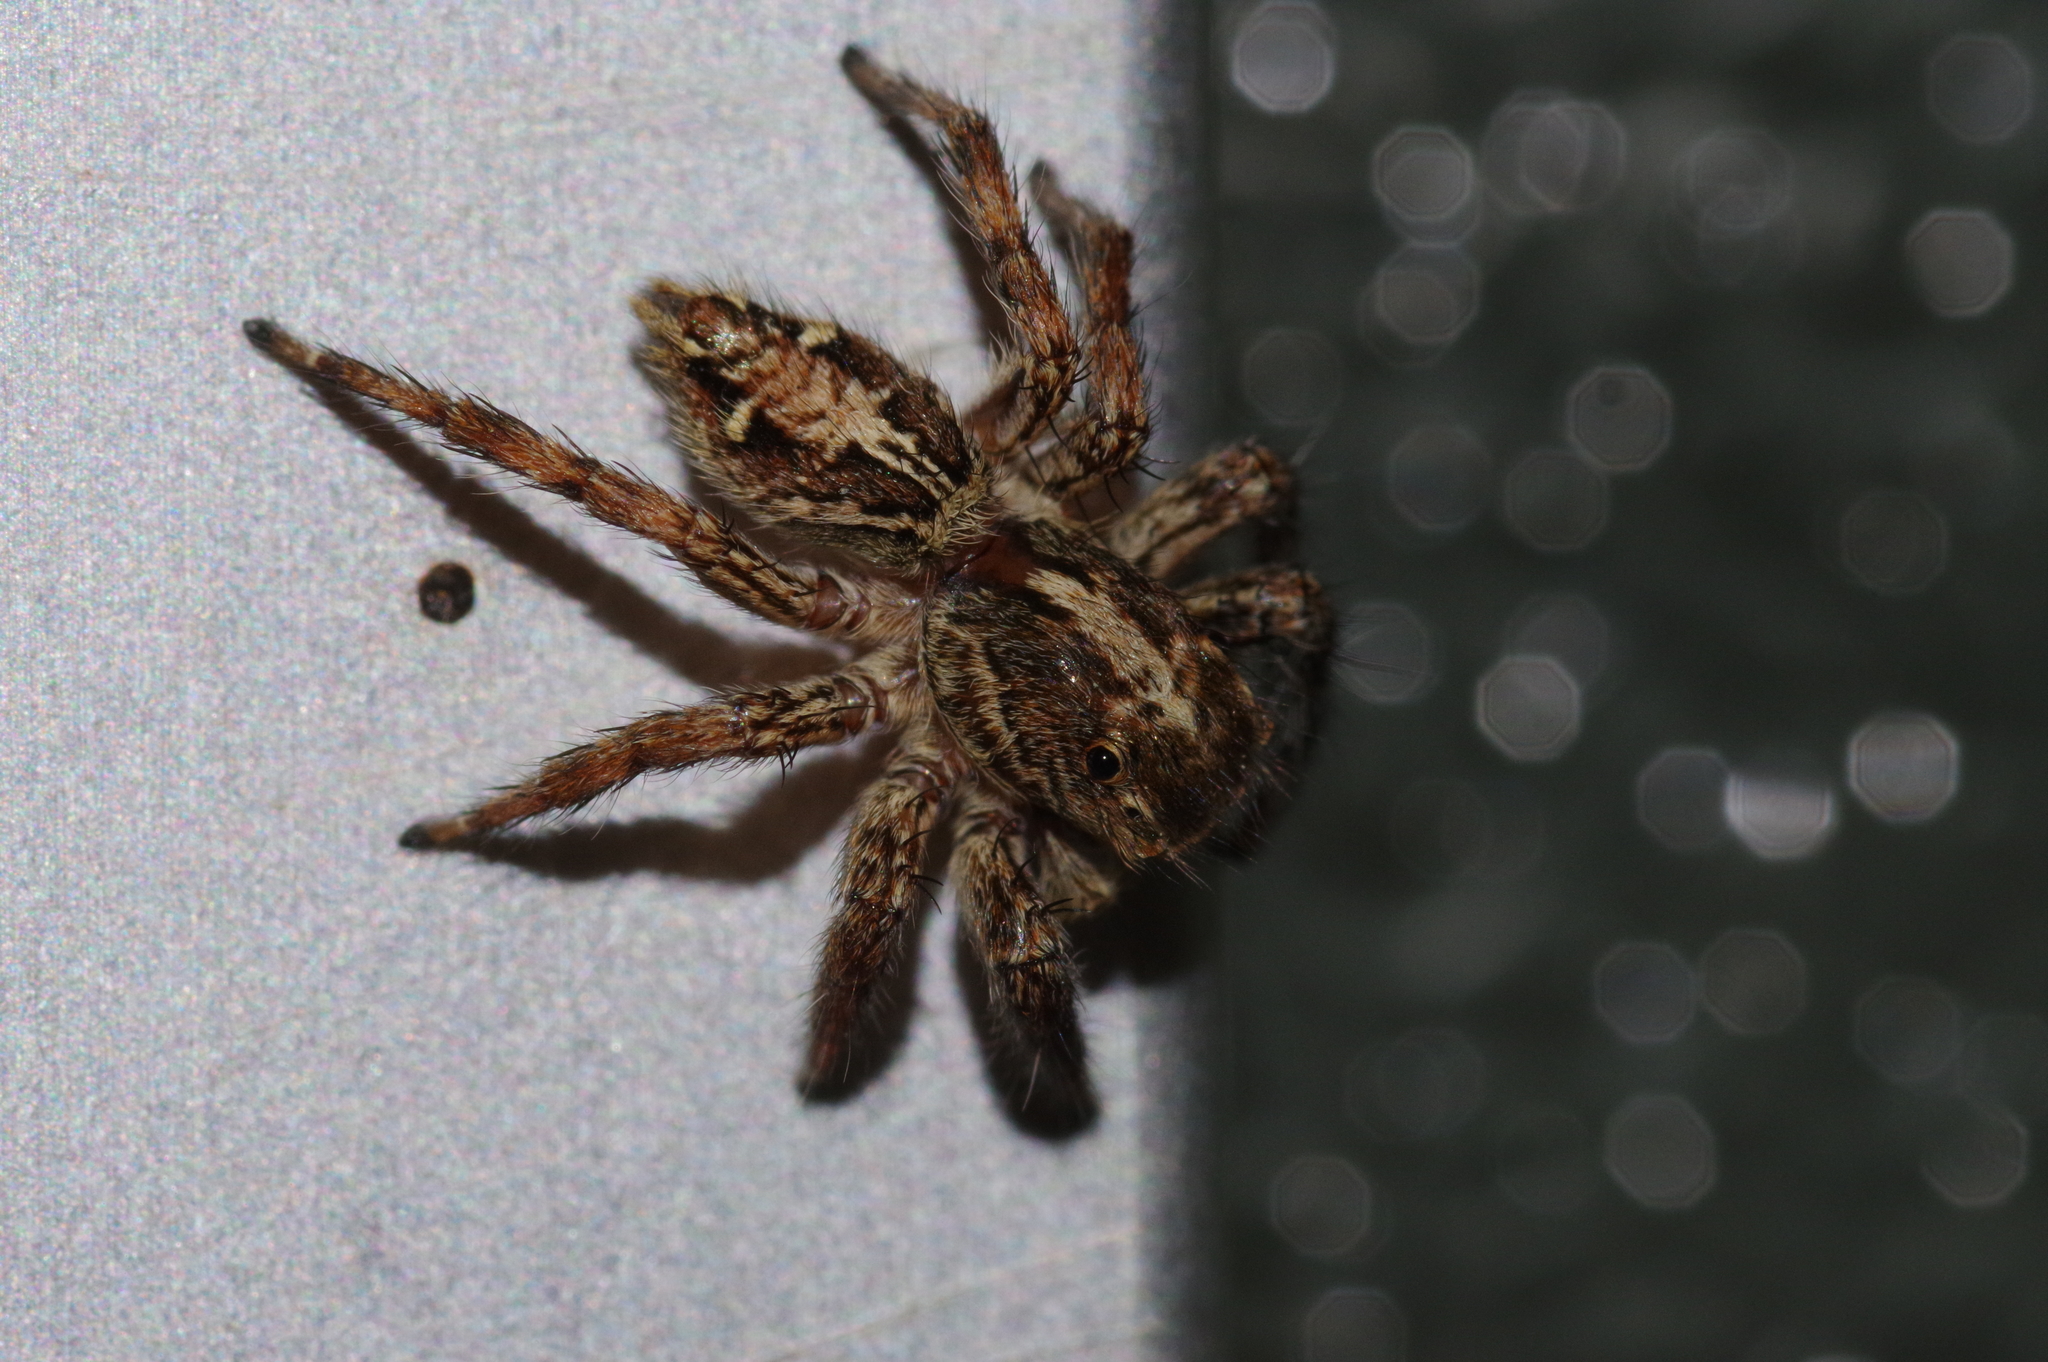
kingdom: Animalia
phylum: Arthropoda
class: Arachnida
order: Araneae
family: Salticidae
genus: Plexippus
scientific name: Plexippus paykulli
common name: Pantropical jumper
